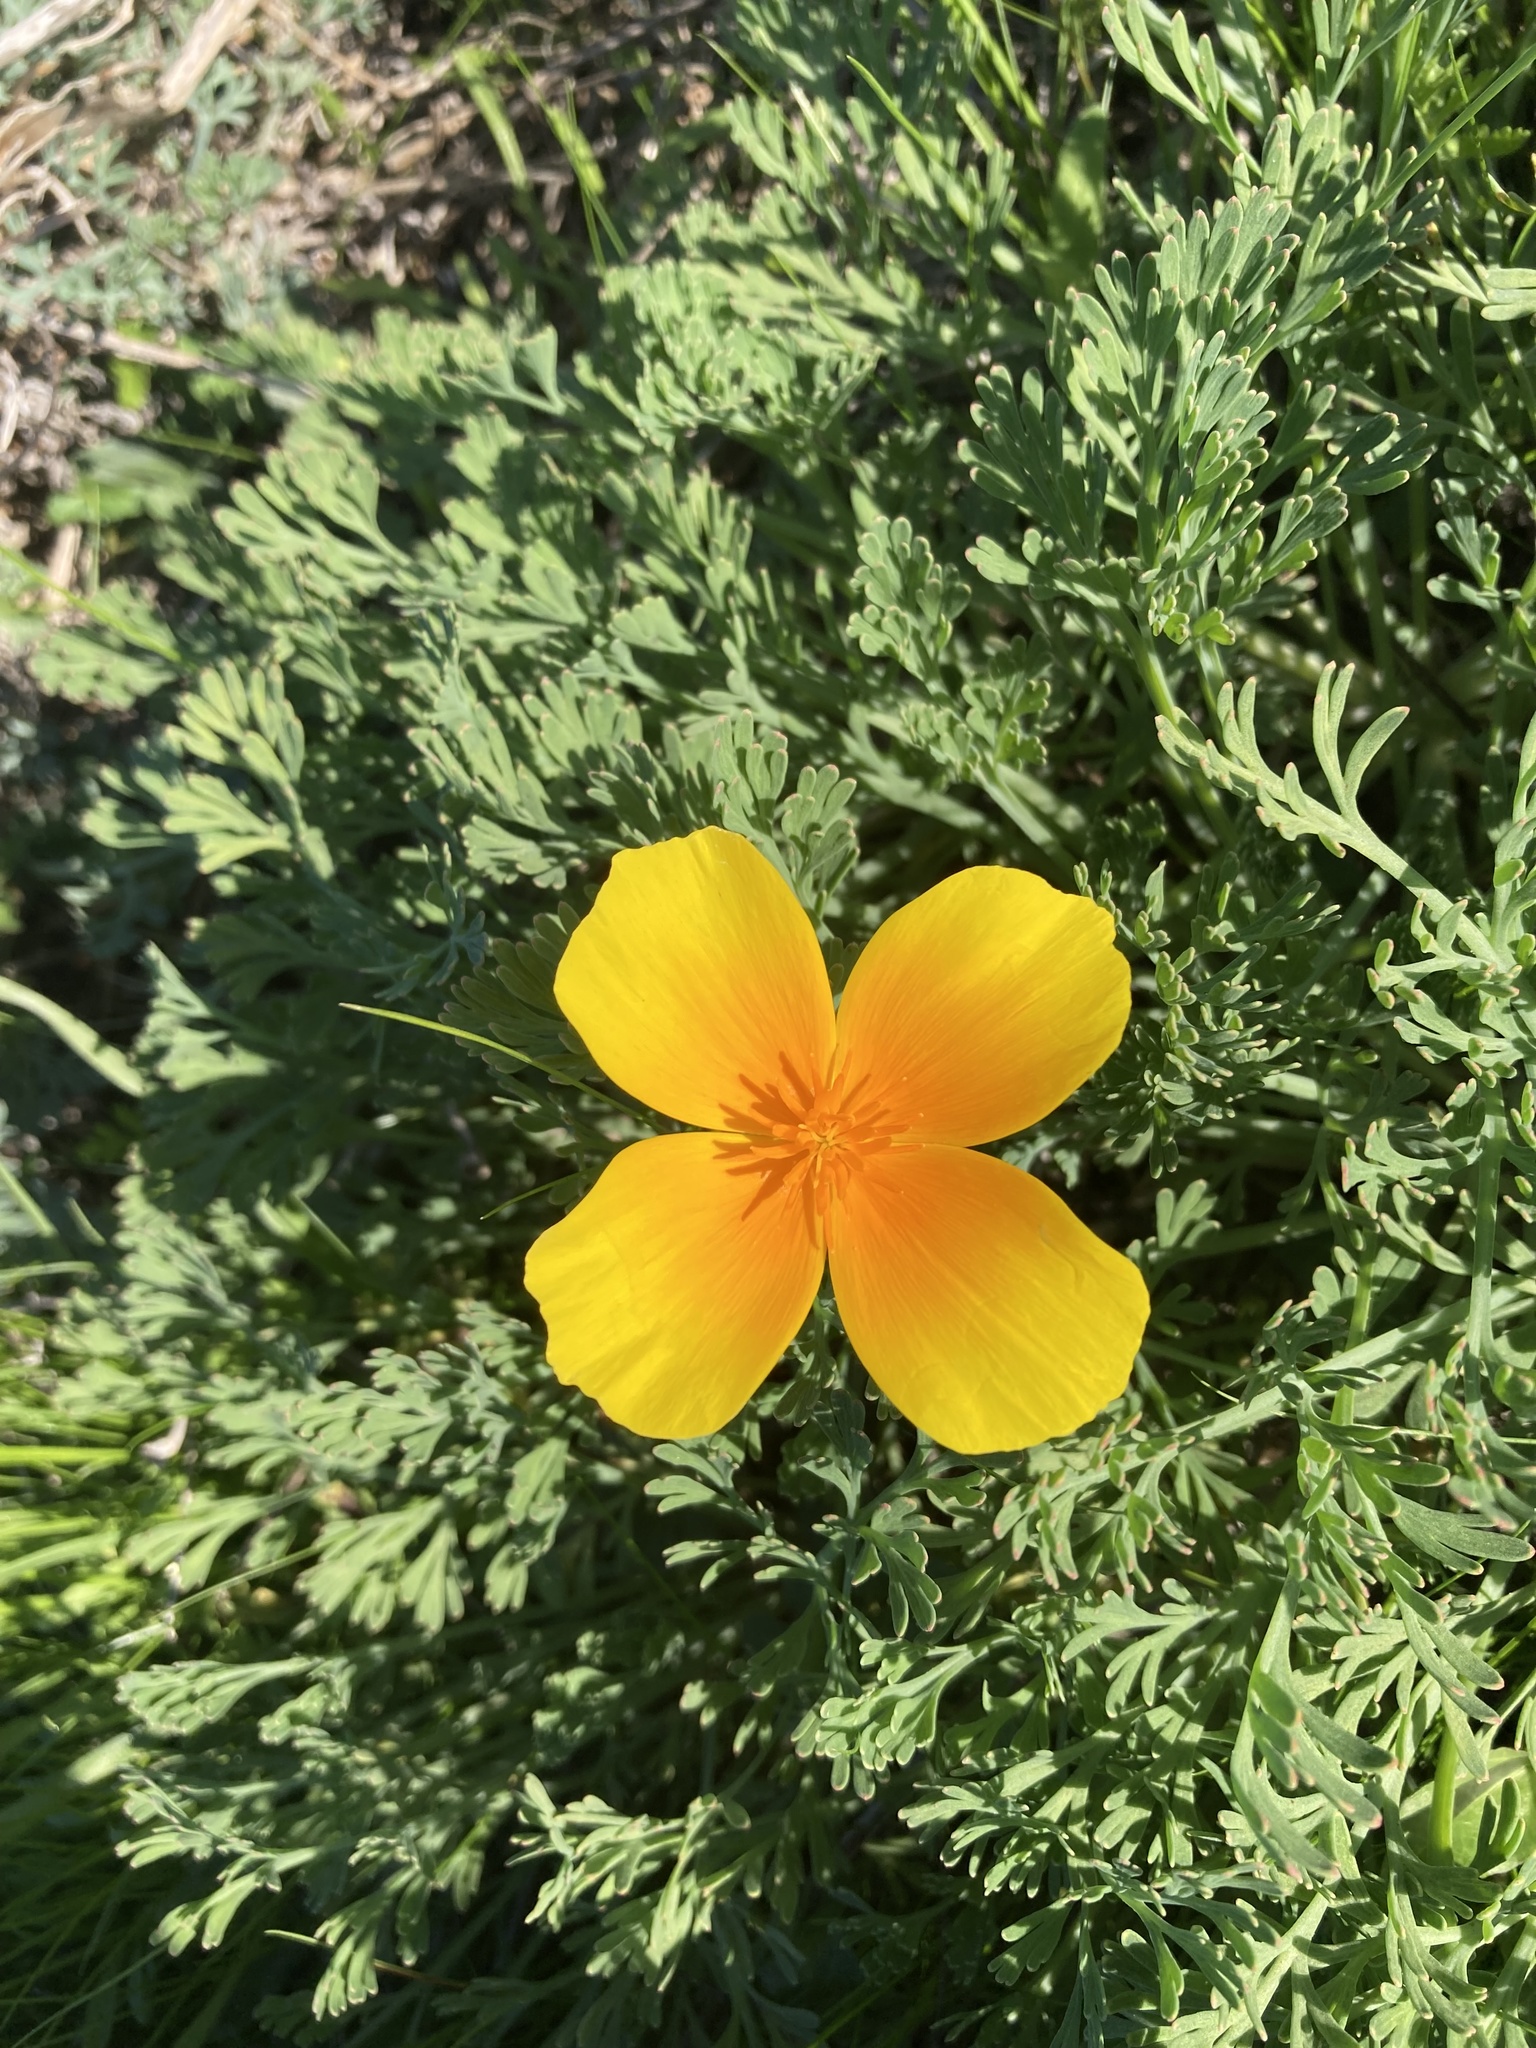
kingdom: Plantae
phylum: Tracheophyta
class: Magnoliopsida
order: Ranunculales
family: Papaveraceae
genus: Eschscholzia
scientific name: Eschscholzia californica
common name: California poppy
